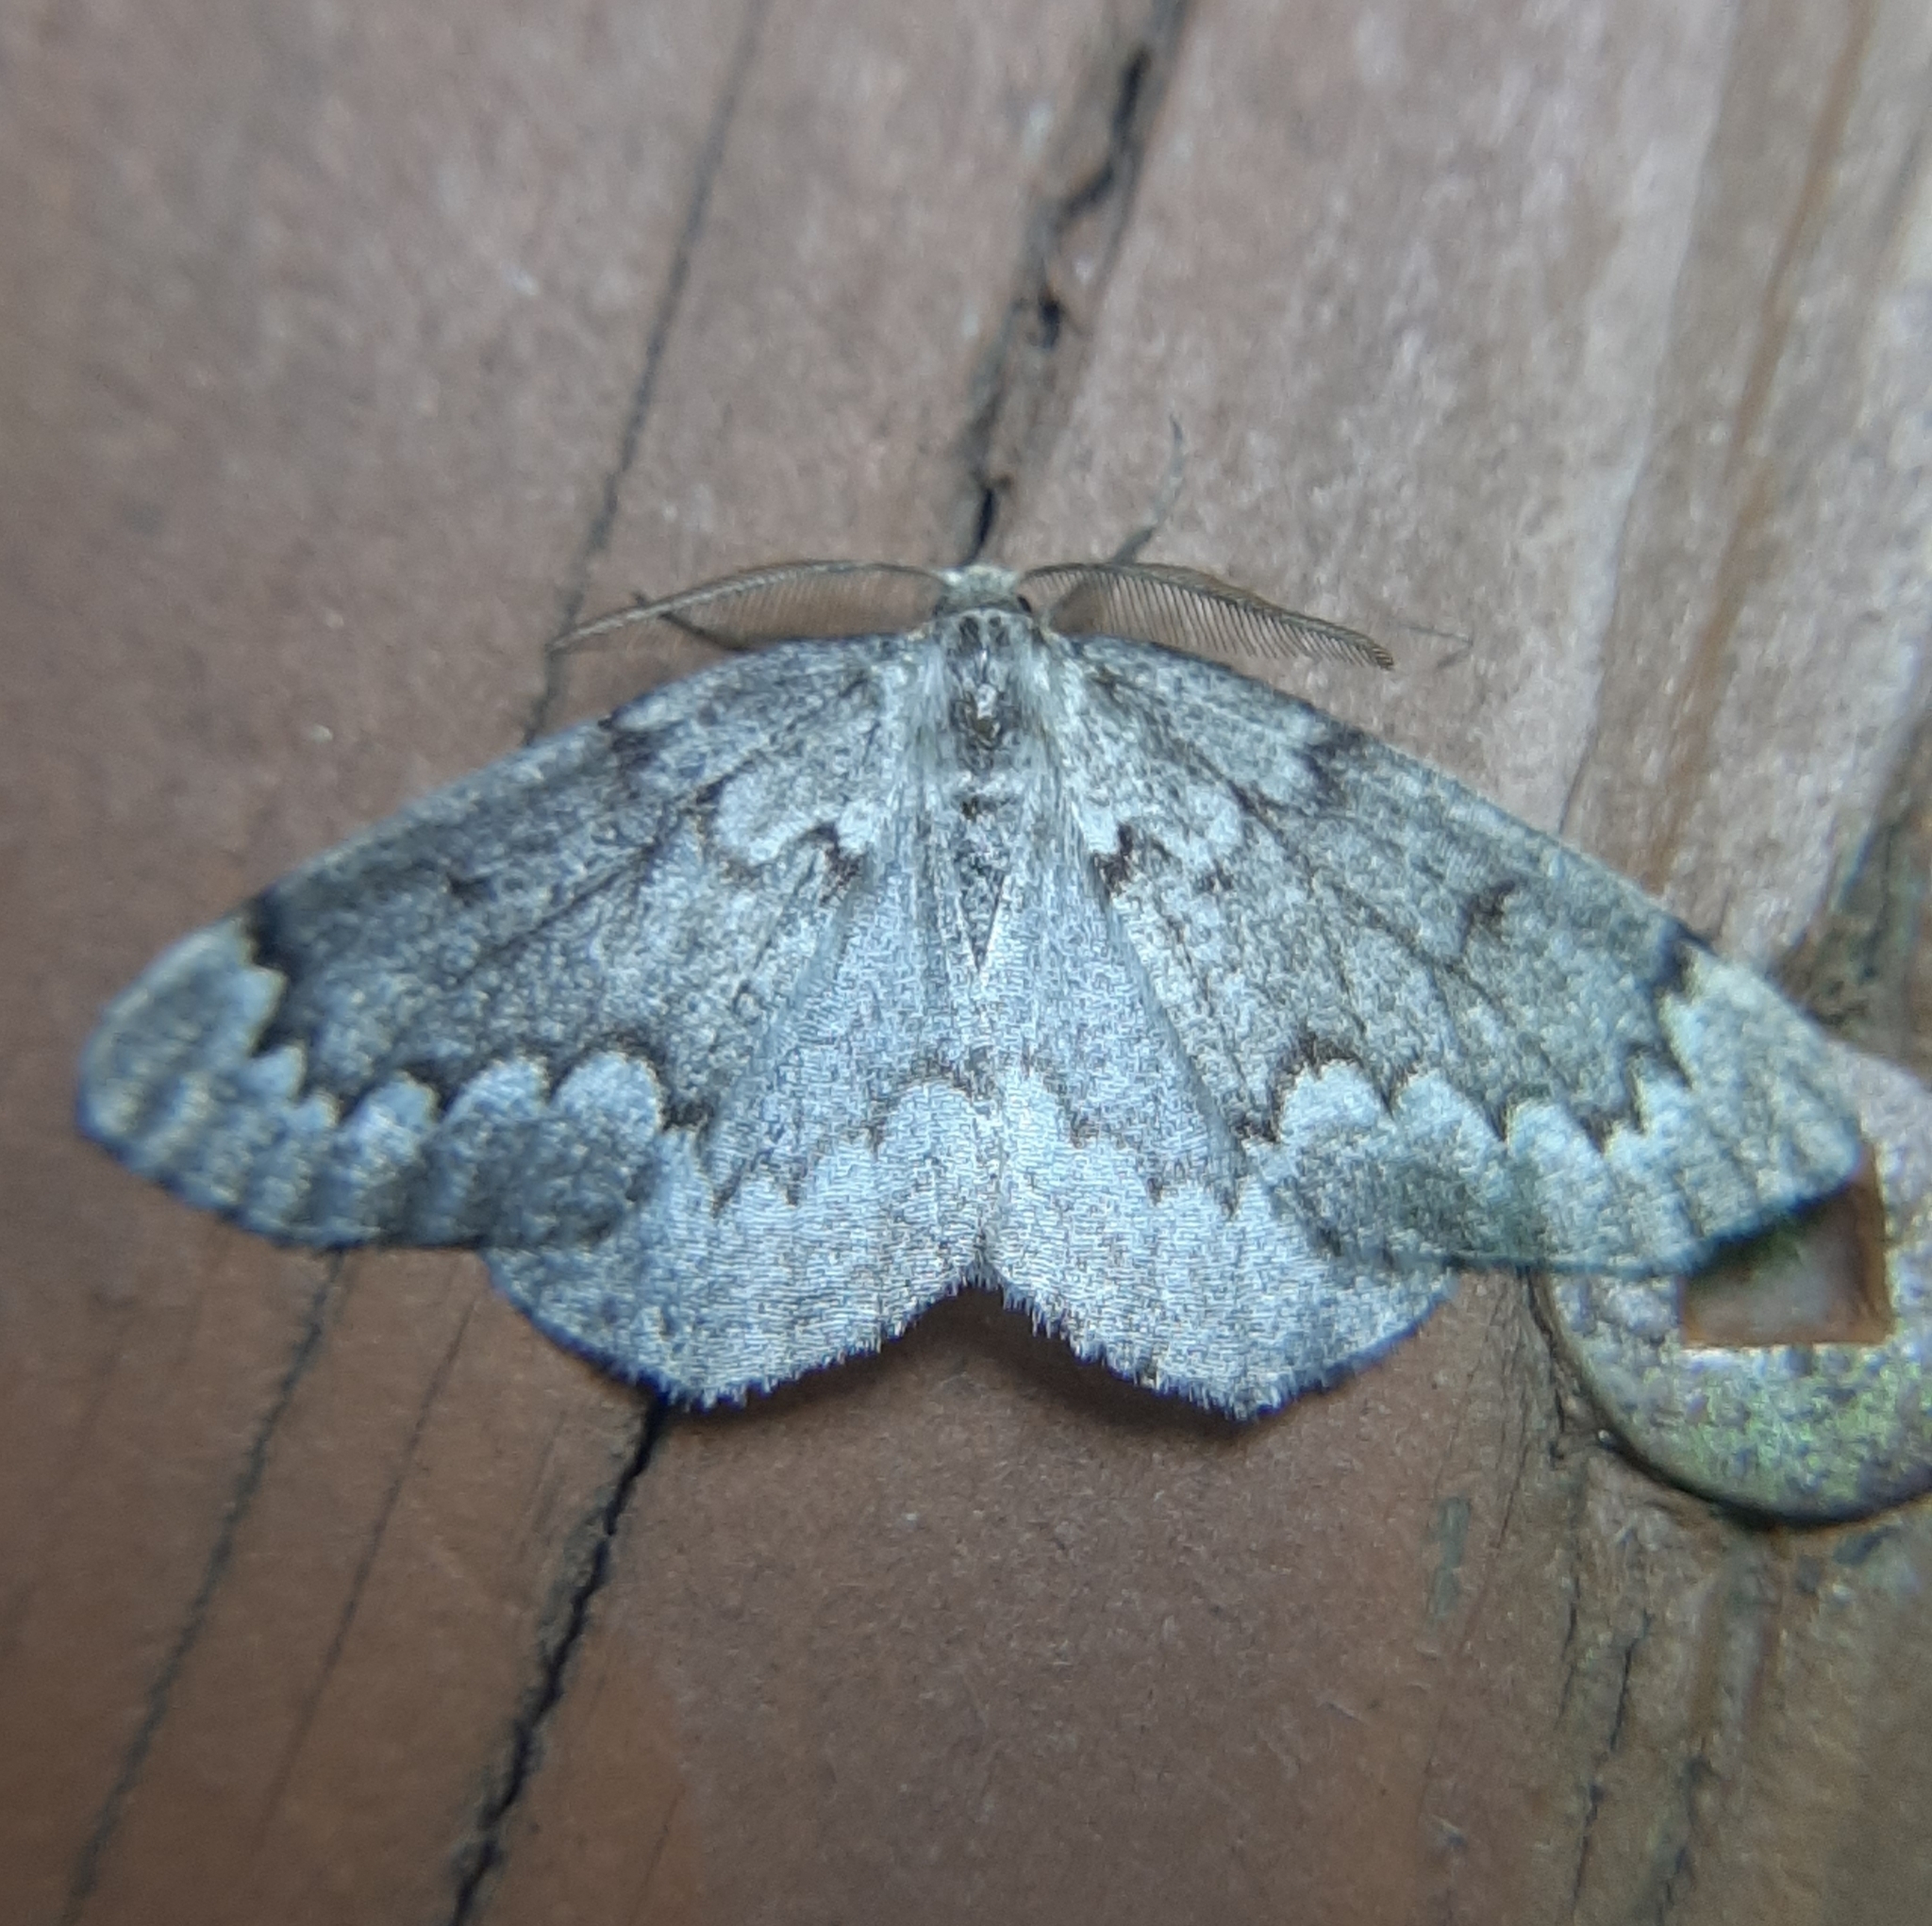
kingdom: Animalia
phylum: Arthropoda
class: Insecta
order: Lepidoptera
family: Geometridae
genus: Nepytia
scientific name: Nepytia canosaria
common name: False hemlock looper
